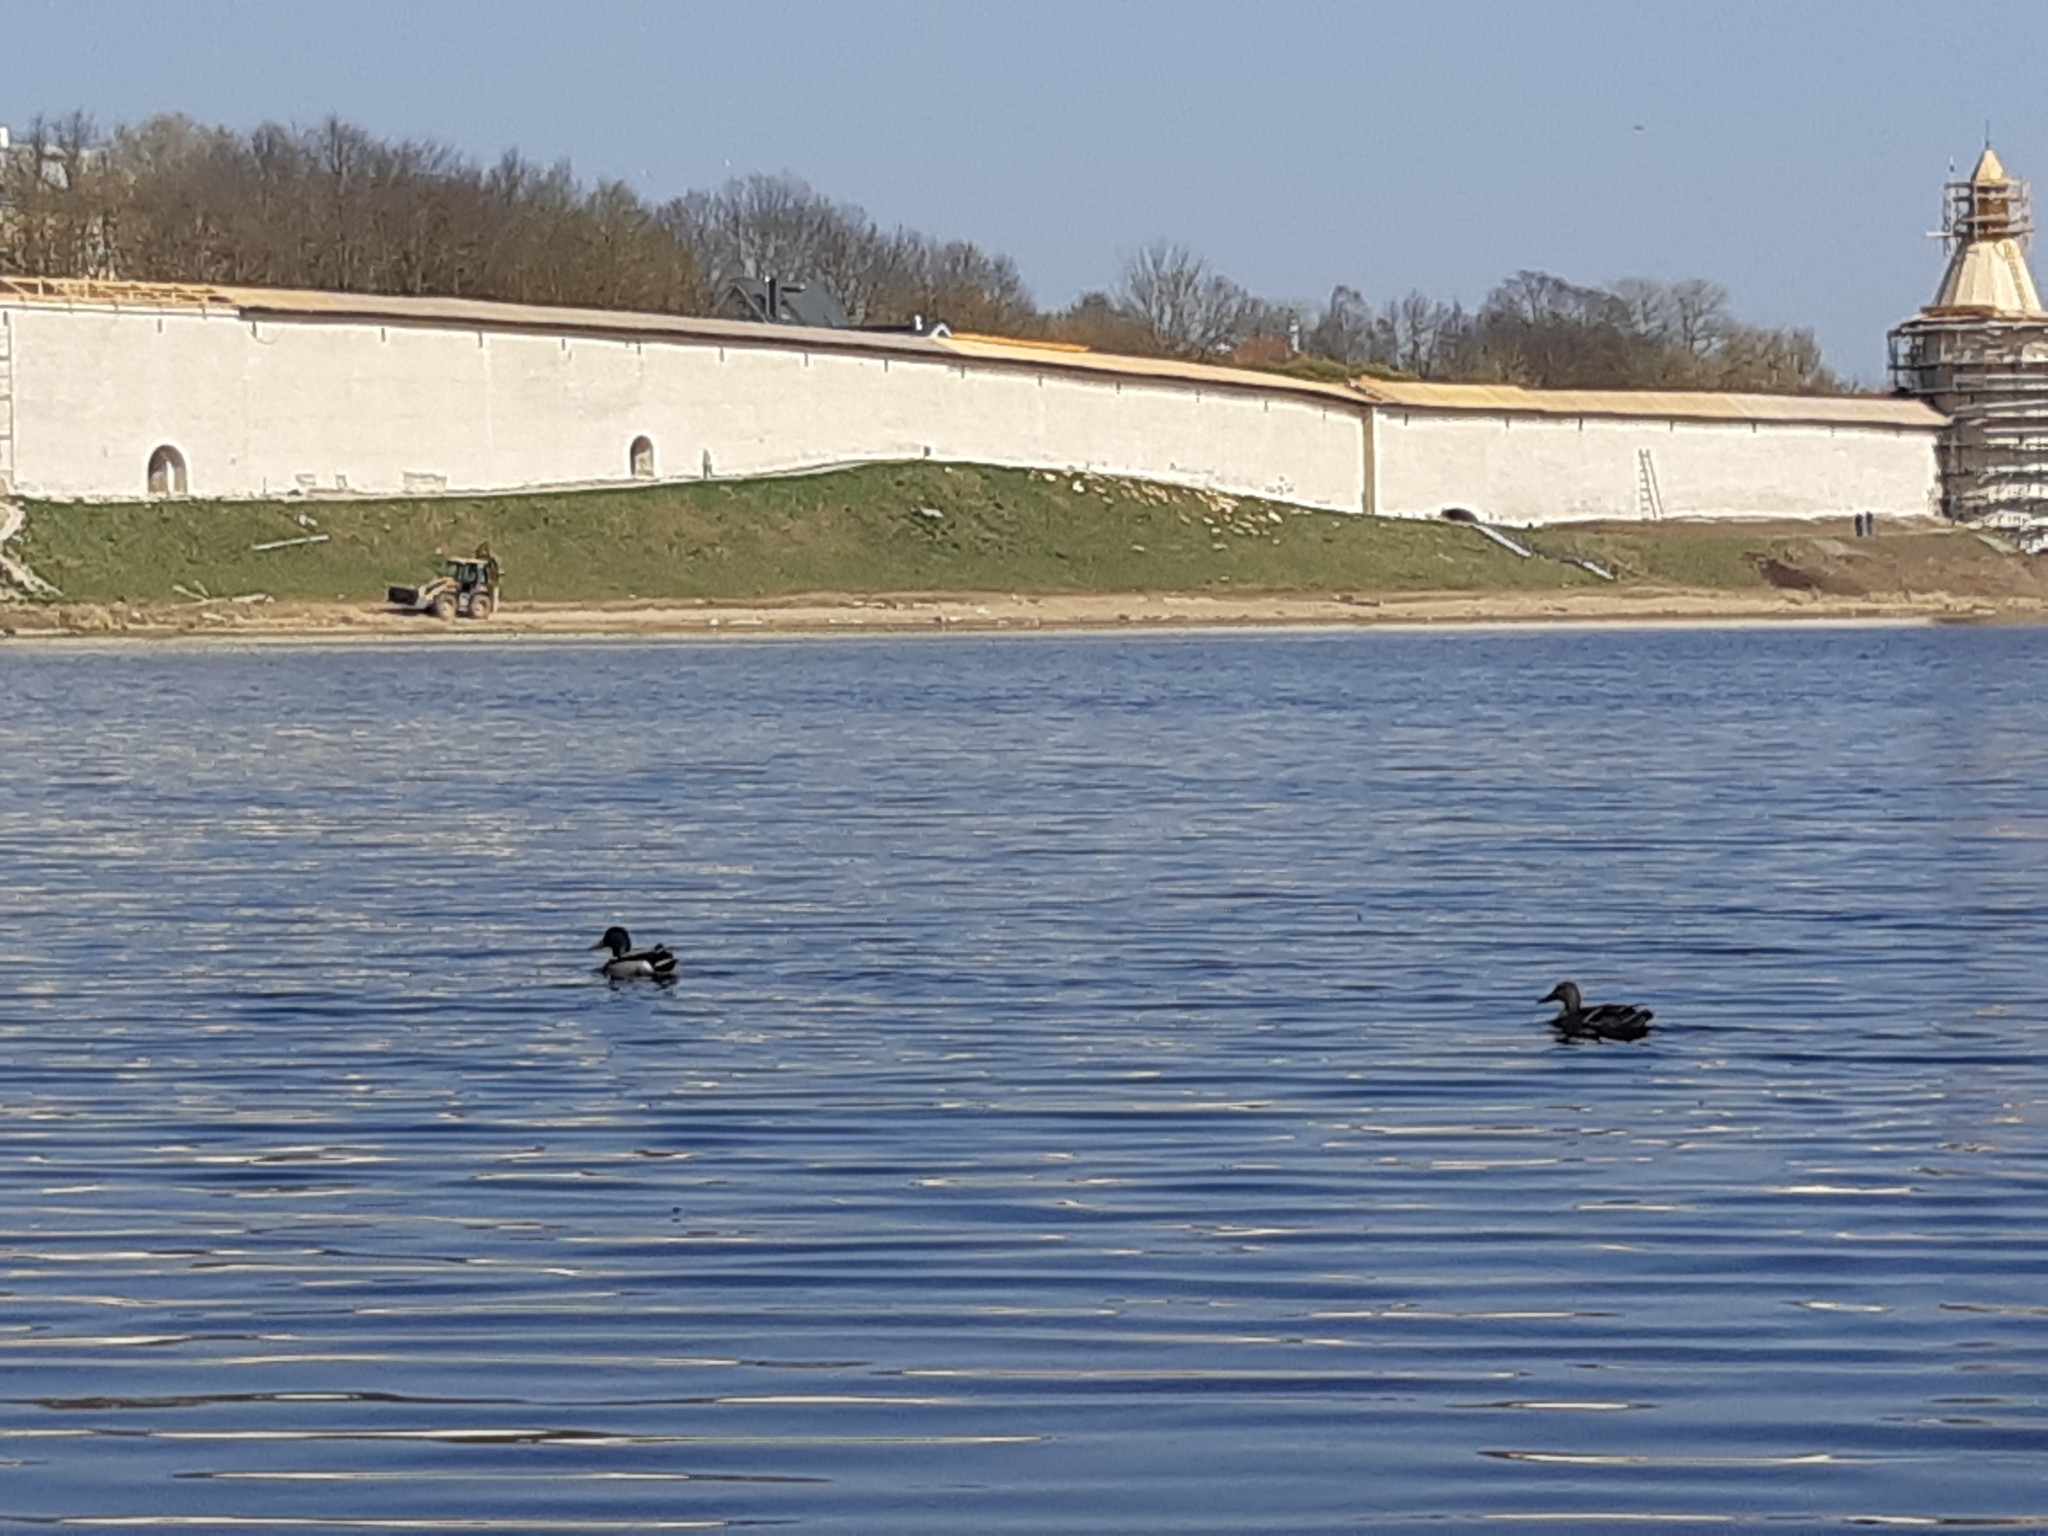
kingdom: Animalia
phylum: Chordata
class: Aves
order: Anseriformes
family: Anatidae
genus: Anas
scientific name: Anas platyrhynchos
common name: Mallard
